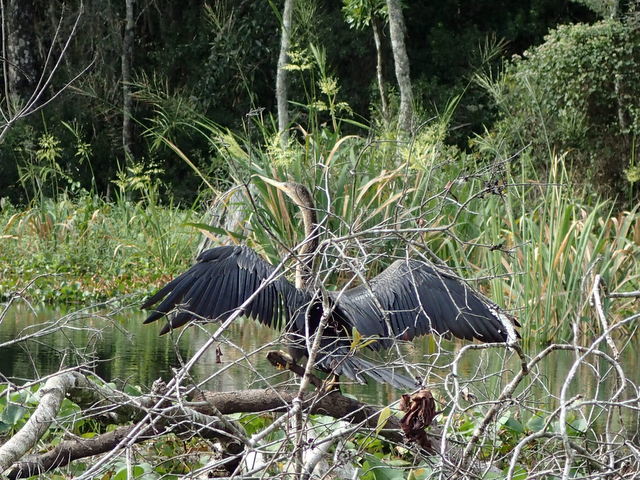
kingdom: Animalia
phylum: Chordata
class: Aves
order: Suliformes
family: Anhingidae
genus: Anhinga
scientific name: Anhinga anhinga
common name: Anhinga
